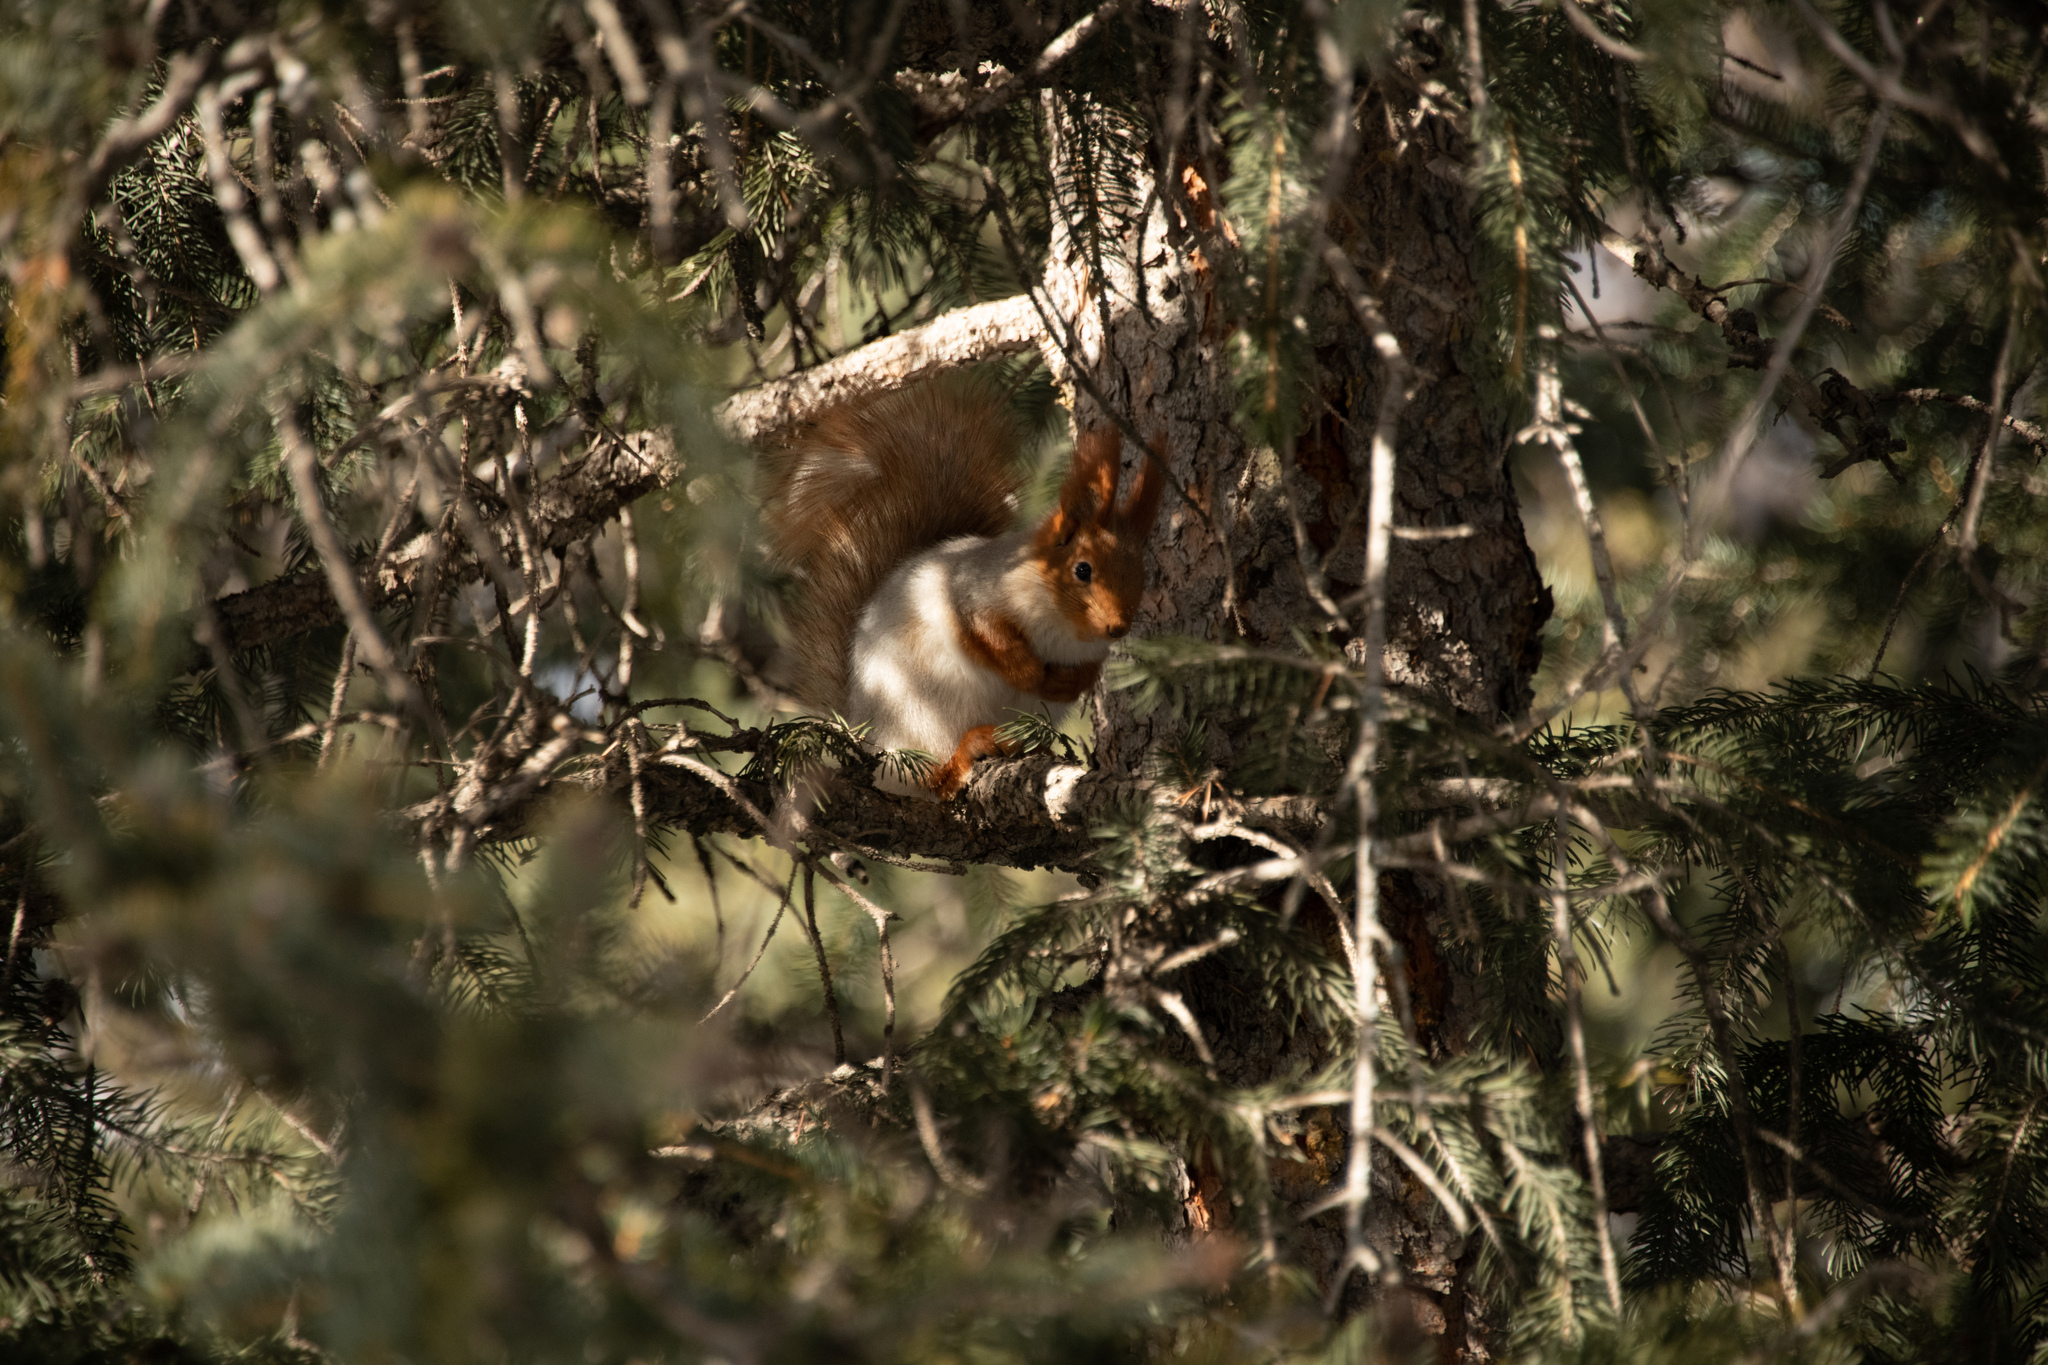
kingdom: Animalia
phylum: Chordata
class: Mammalia
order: Rodentia
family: Sciuridae
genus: Sciurus
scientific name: Sciurus vulgaris
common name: Eurasian red squirrel
